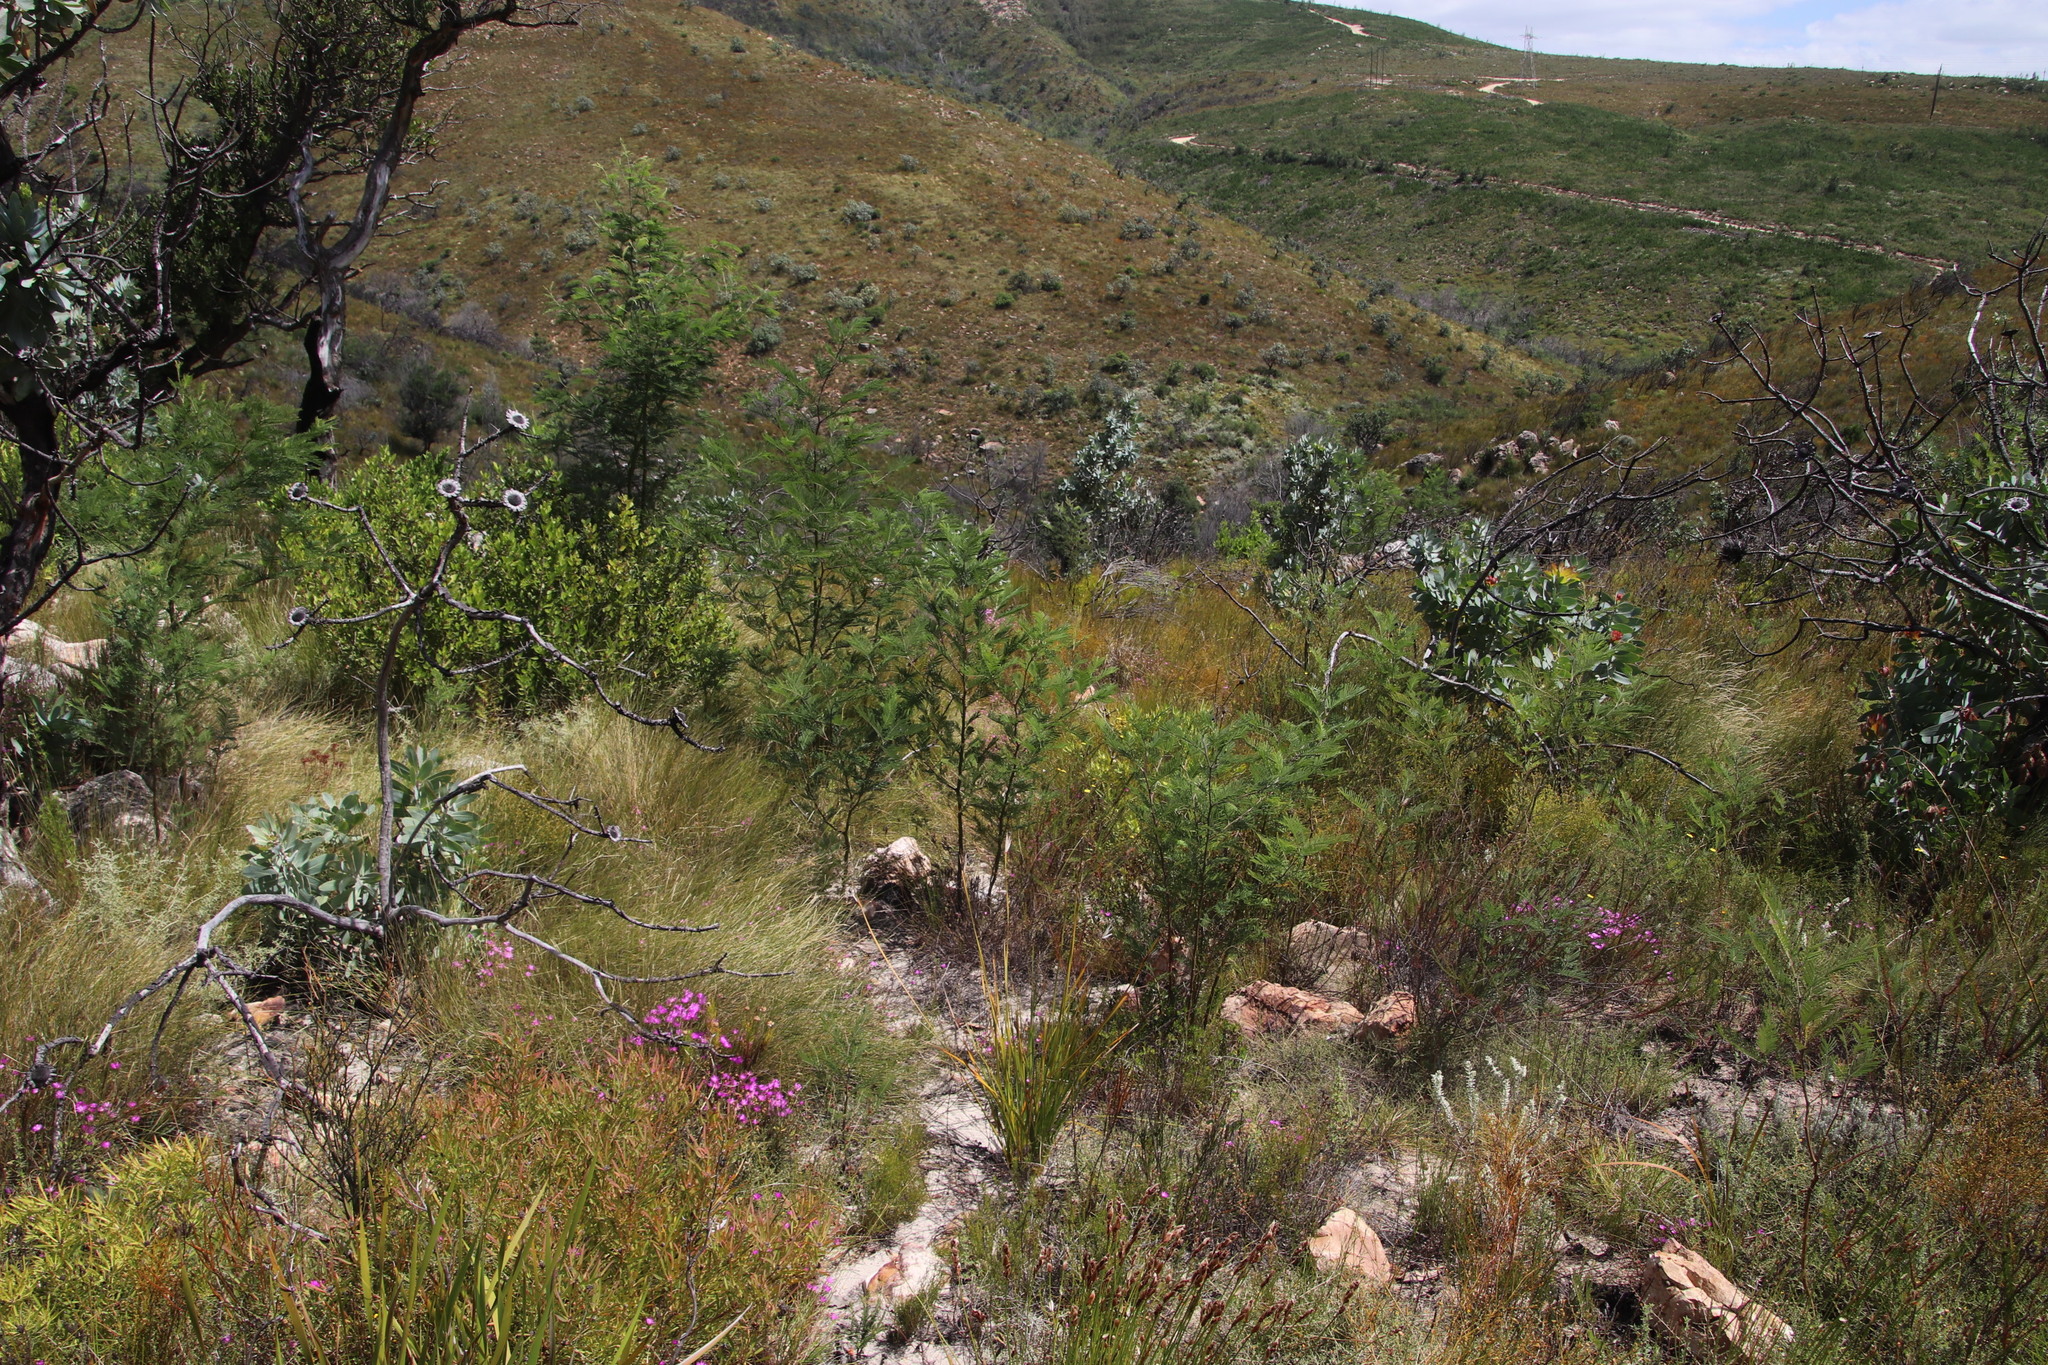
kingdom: Plantae
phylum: Tracheophyta
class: Magnoliopsida
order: Fabales
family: Fabaceae
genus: Acacia
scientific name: Acacia mearnsii
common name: Black wattle
